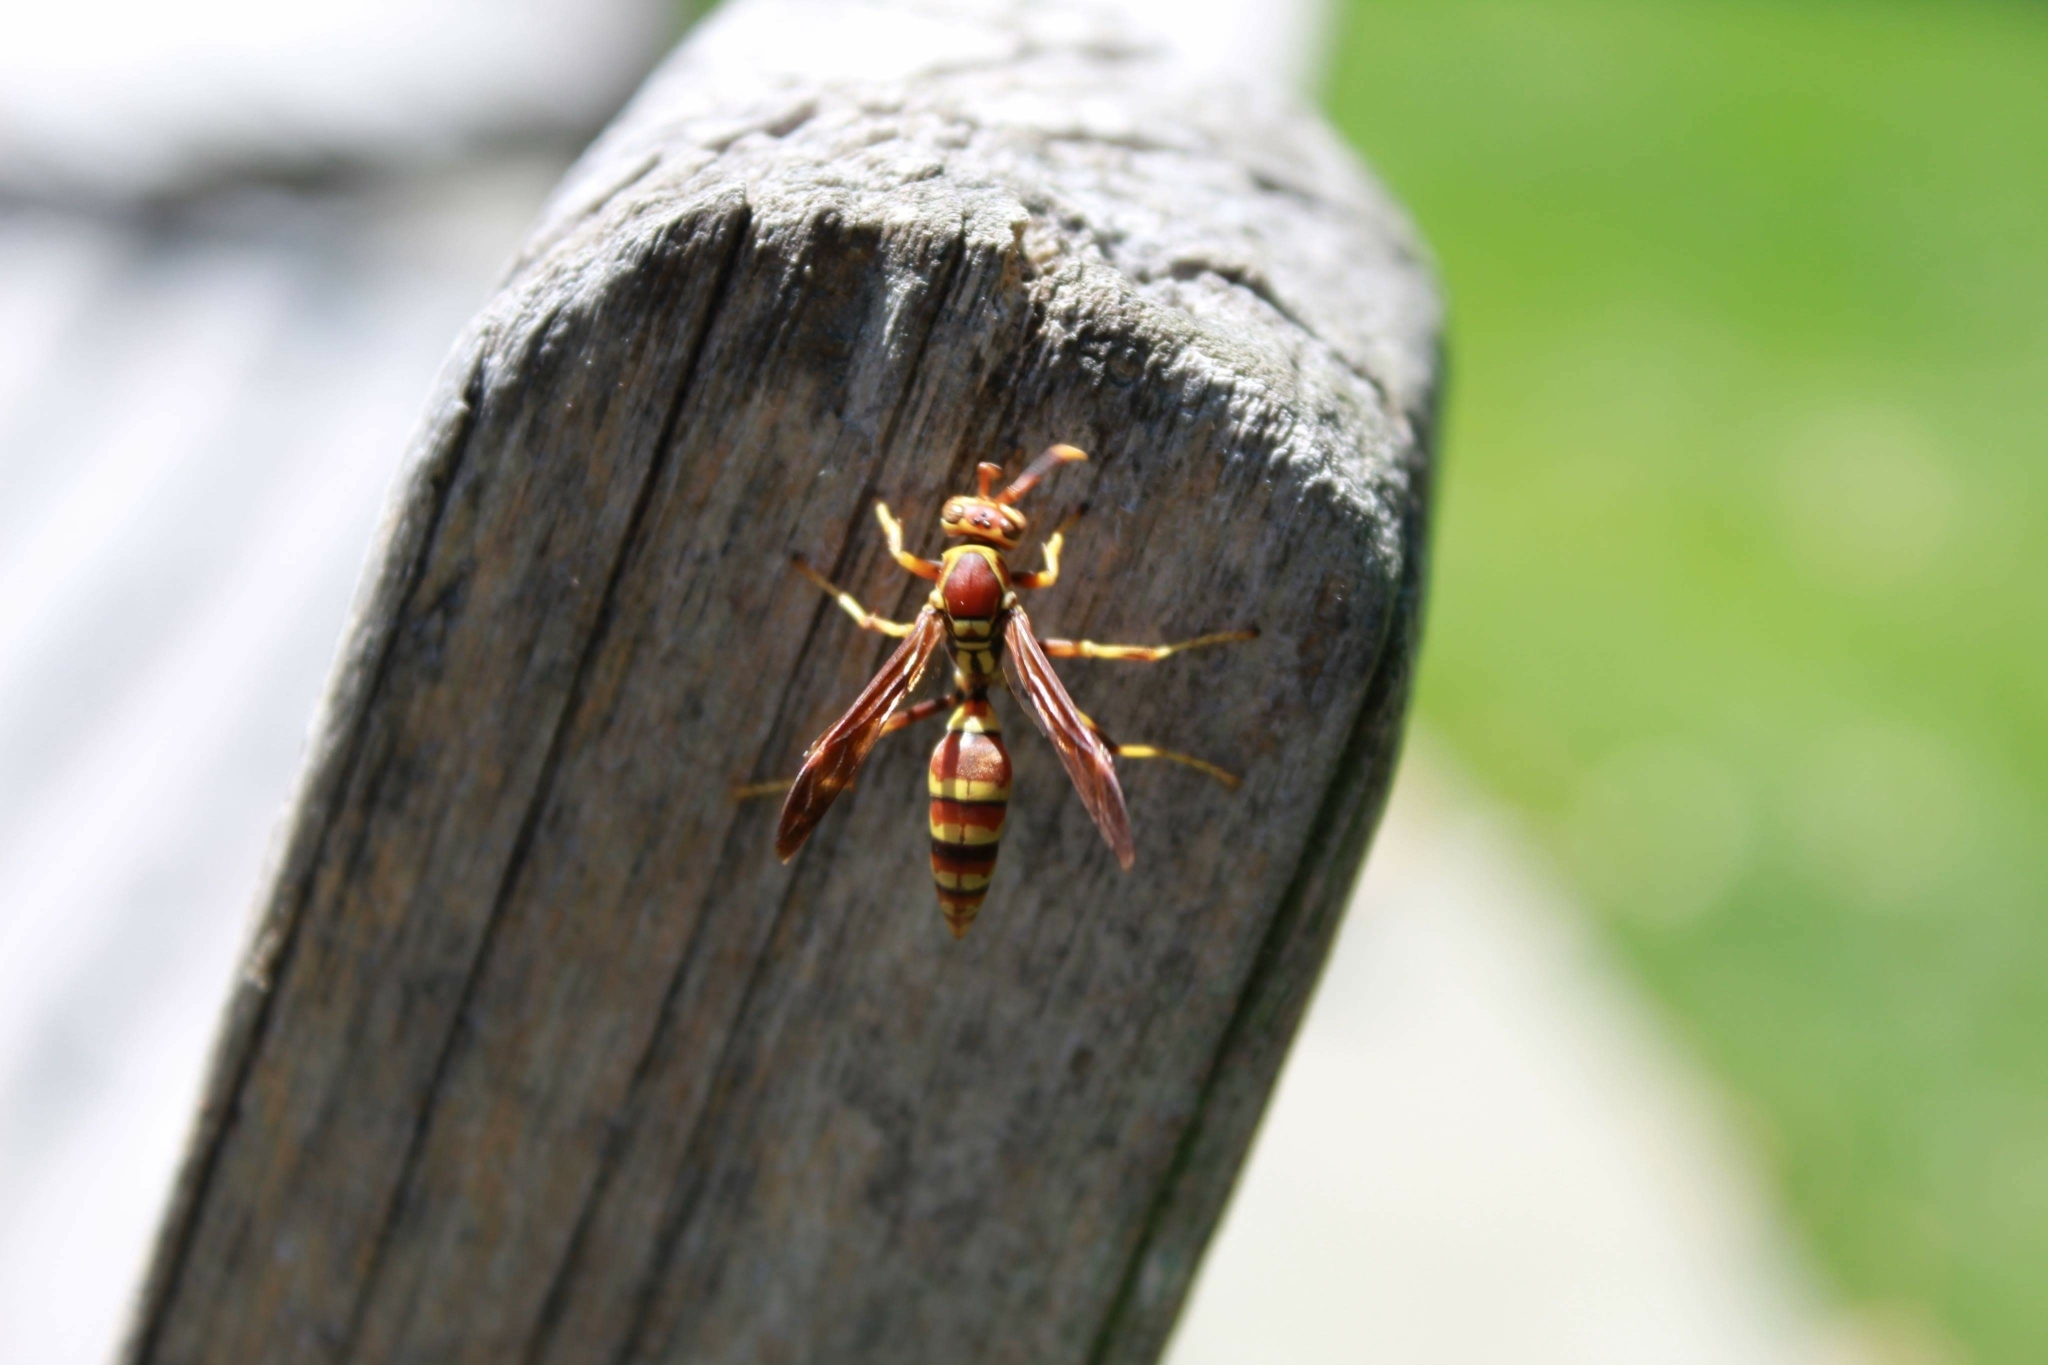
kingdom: Animalia
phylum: Arthropoda
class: Insecta
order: Hymenoptera
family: Eumenidae
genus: Polistes
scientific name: Polistes exclamans
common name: Paper wasp
